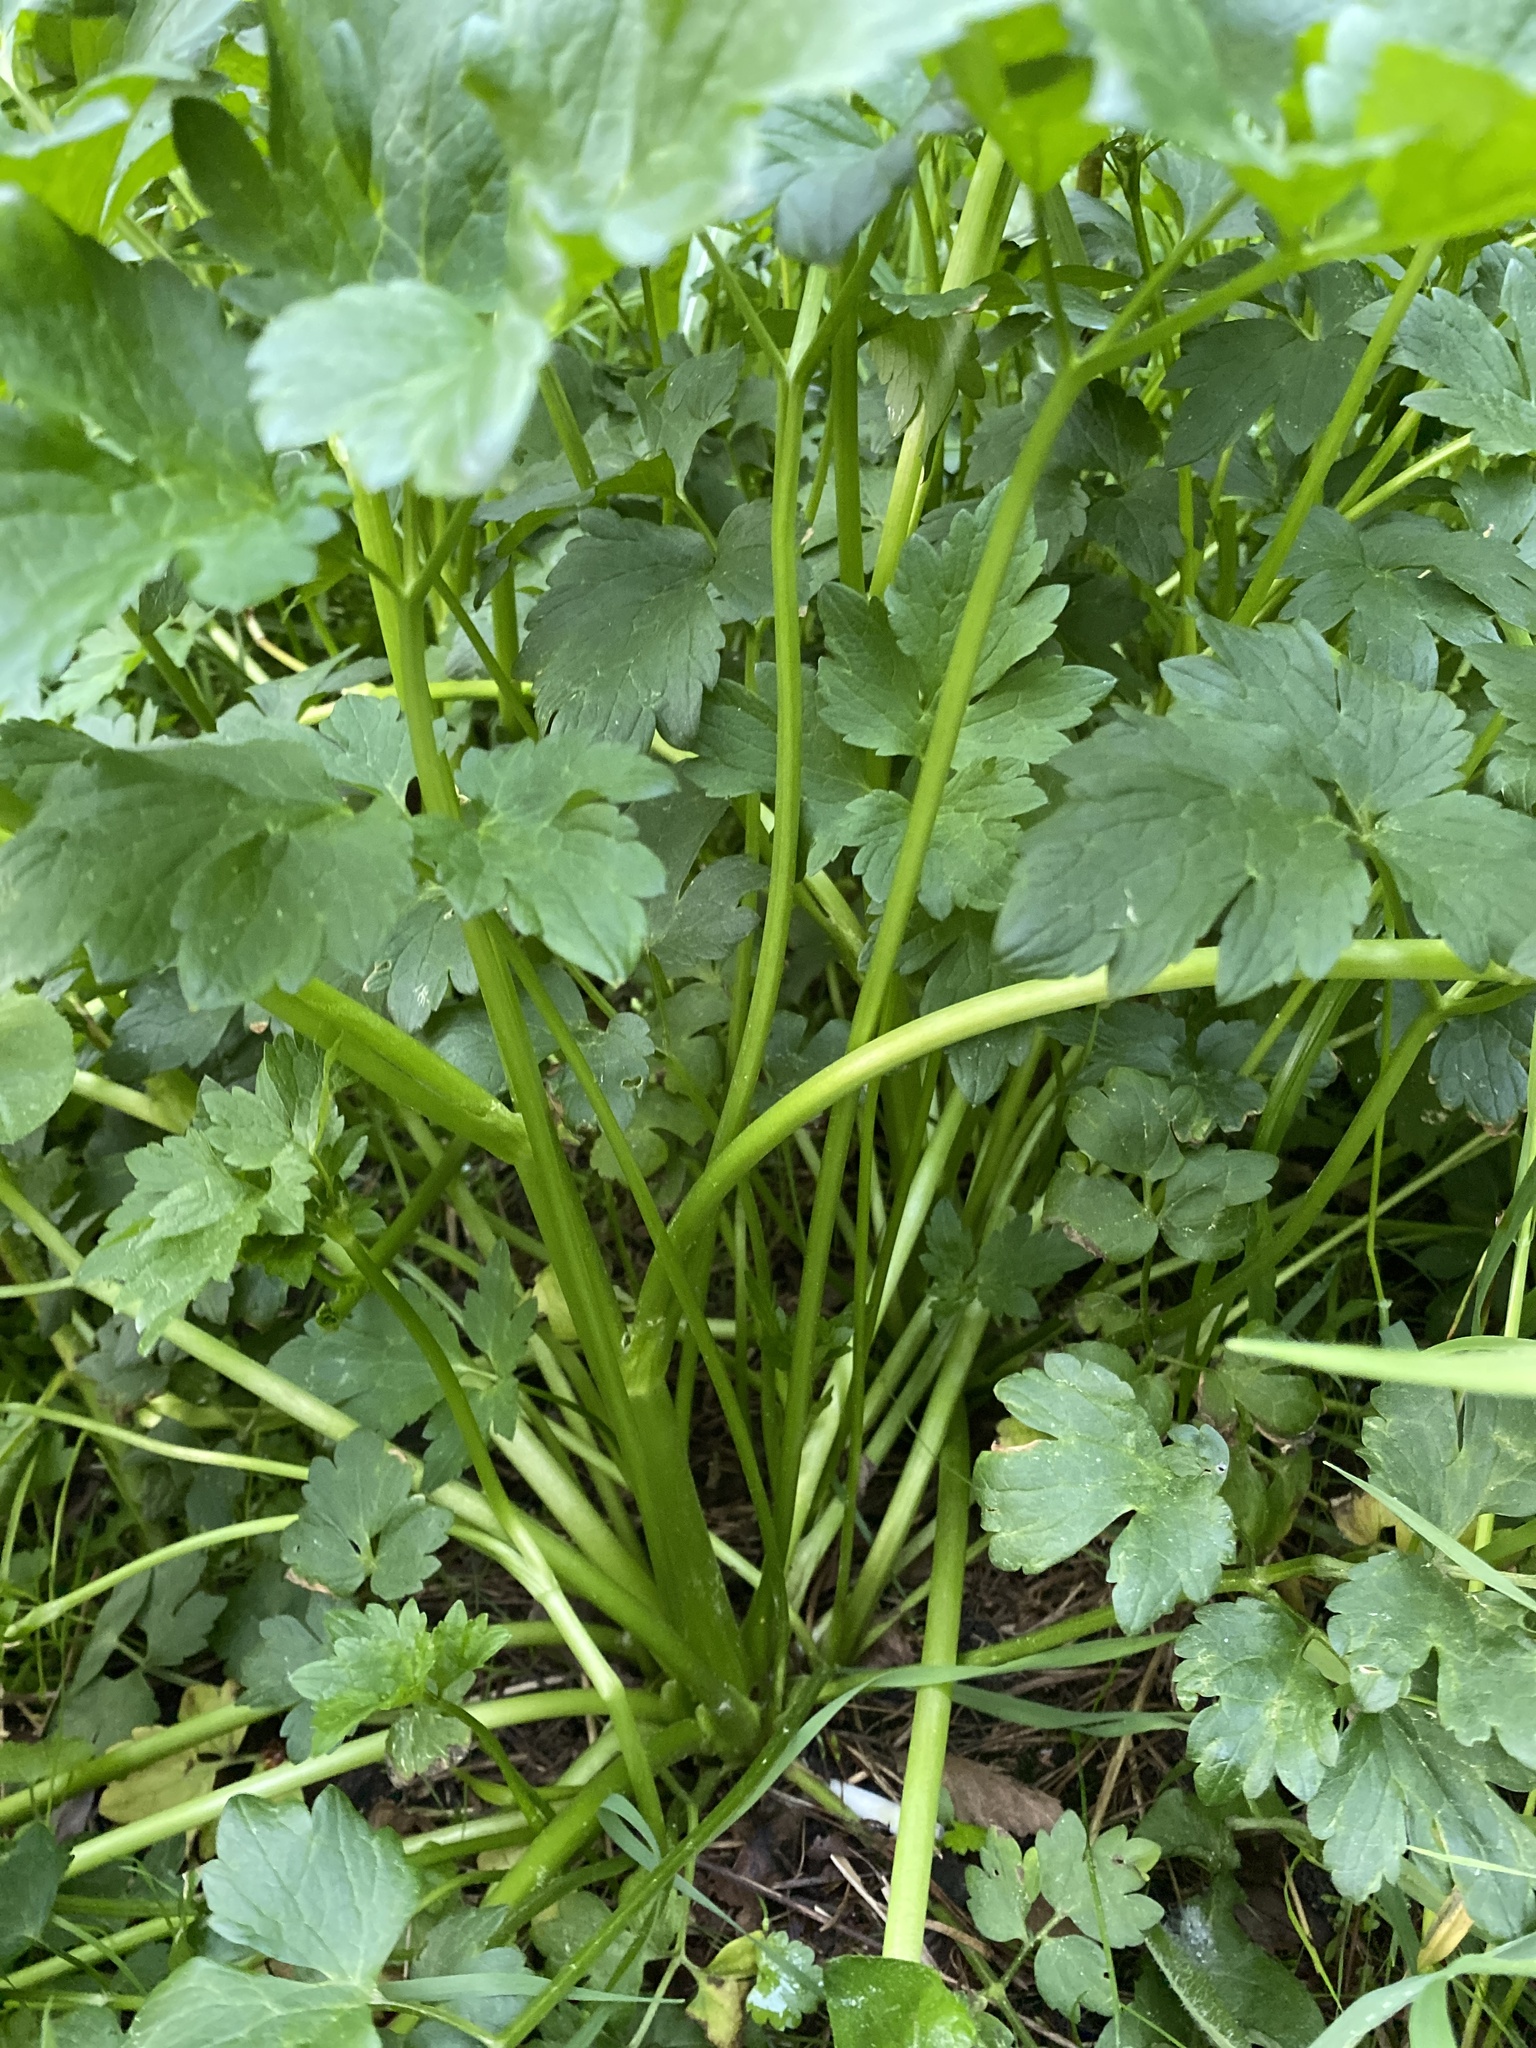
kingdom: Plantae
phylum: Tracheophyta
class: Magnoliopsida
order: Ranunculales
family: Ranunculaceae
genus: Ranunculus
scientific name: Ranunculus repens
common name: Creeping buttercup
